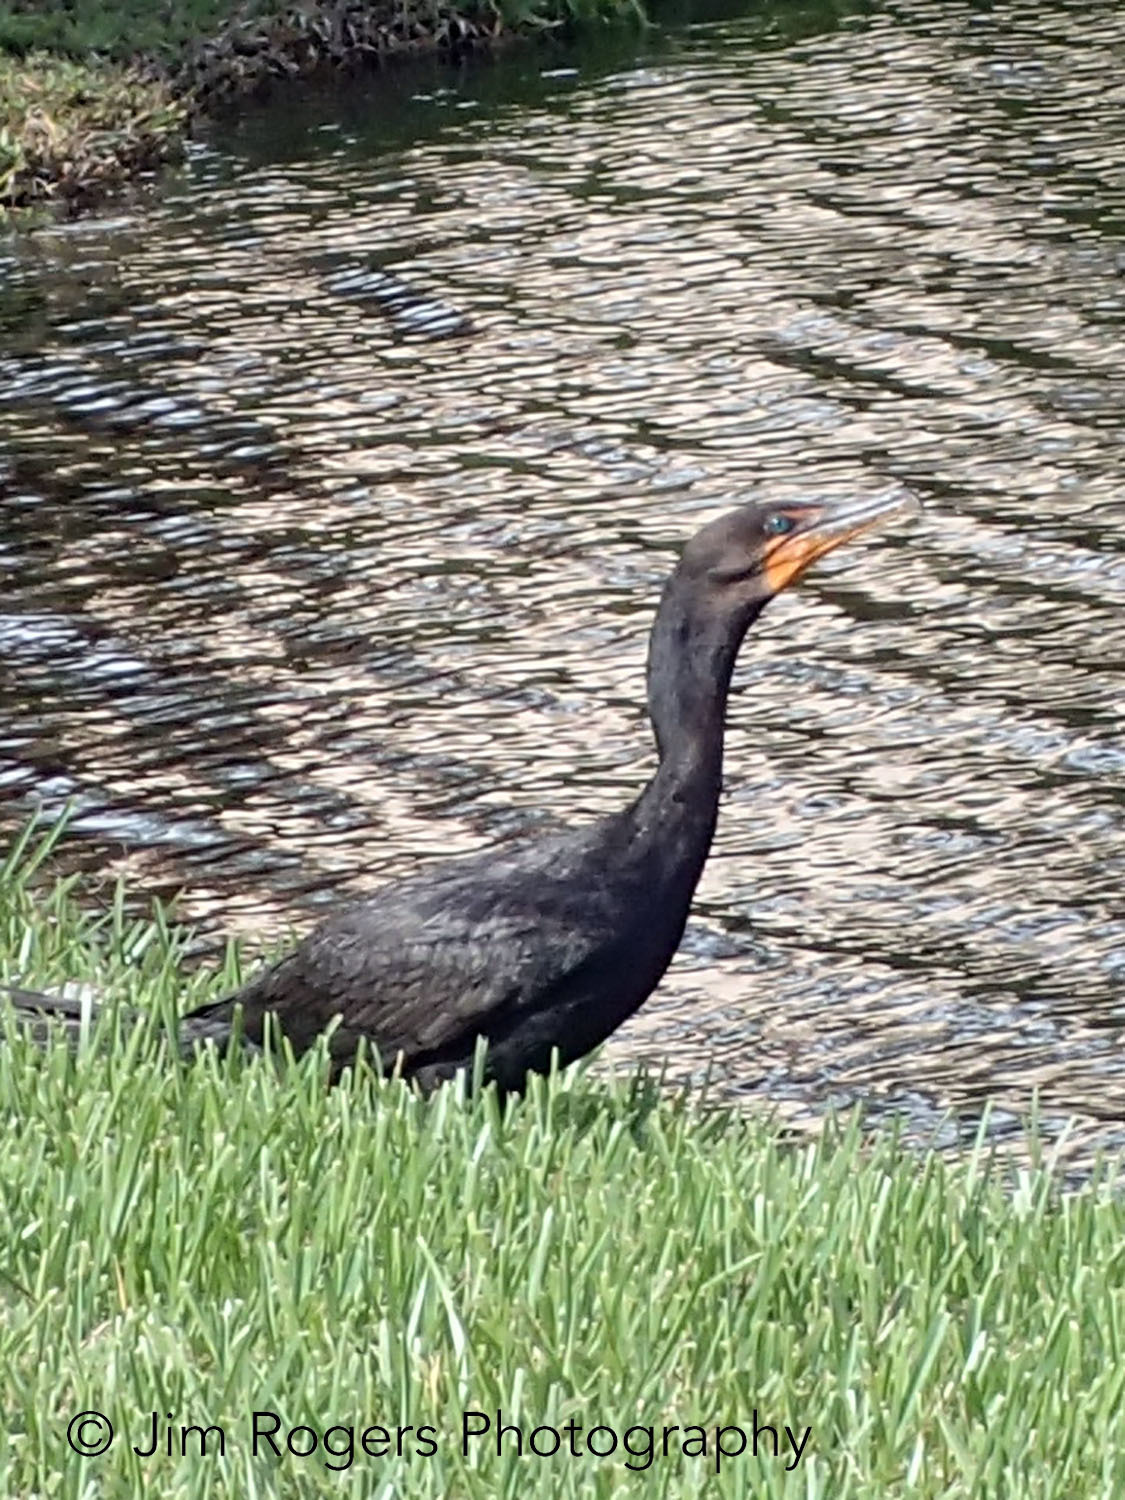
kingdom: Animalia
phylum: Chordata
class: Aves
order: Suliformes
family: Phalacrocoracidae
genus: Phalacrocorax
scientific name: Phalacrocorax auritus
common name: Double-crested cormorant
